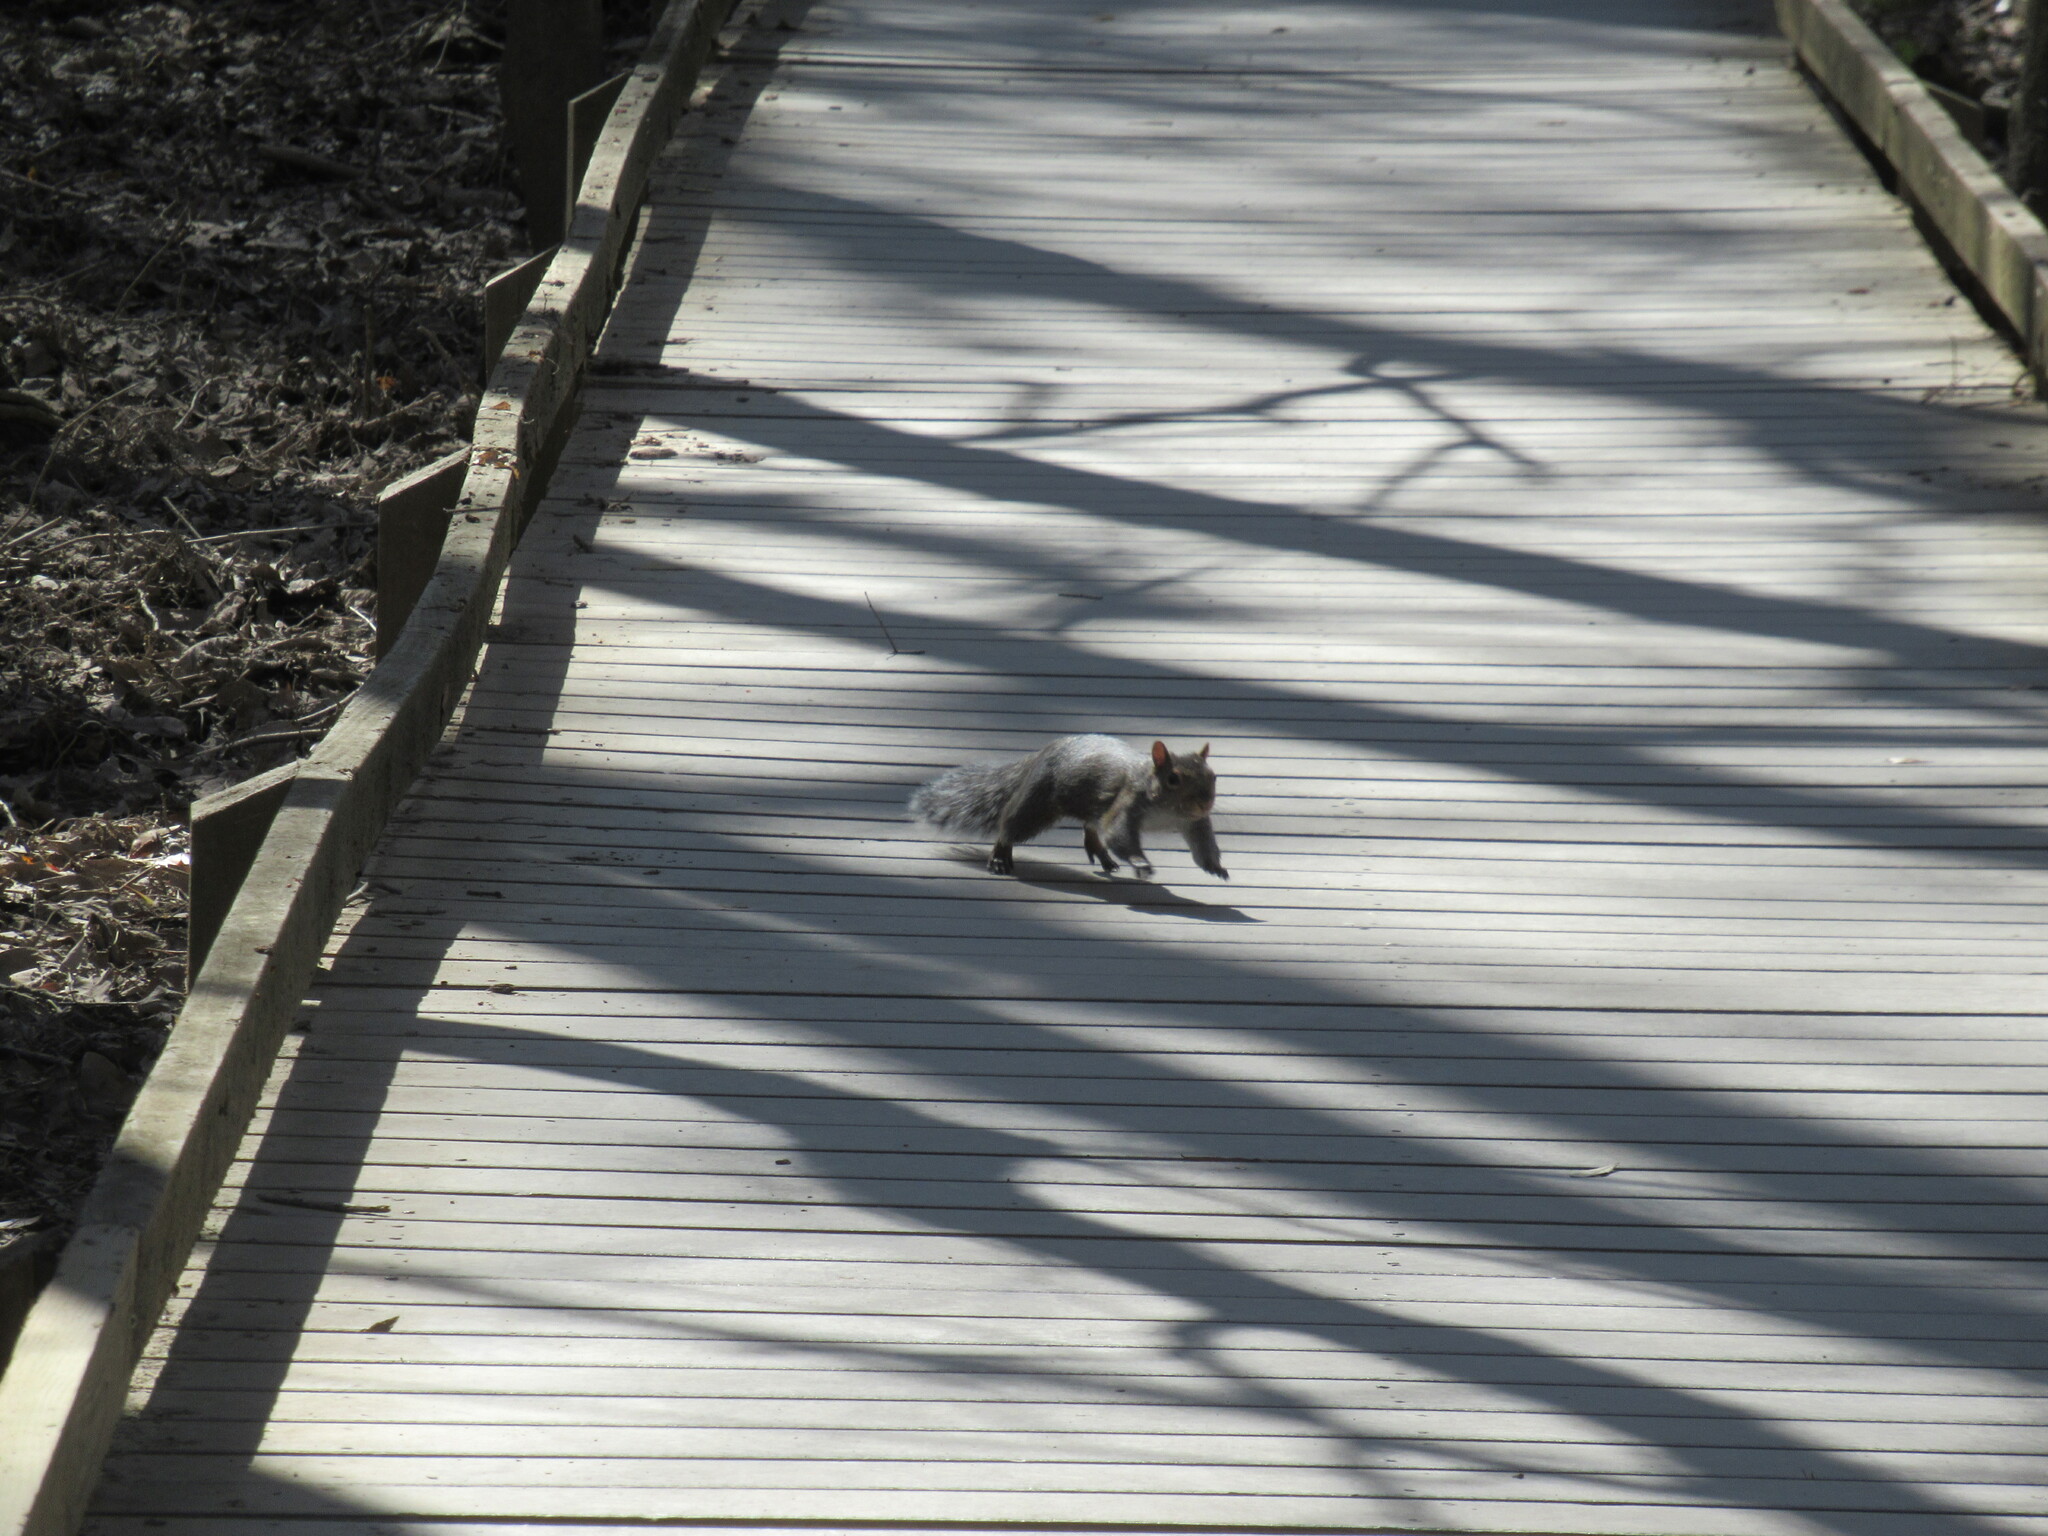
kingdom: Animalia
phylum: Chordata
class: Mammalia
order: Rodentia
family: Sciuridae
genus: Sciurus
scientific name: Sciurus carolinensis
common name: Eastern gray squirrel
